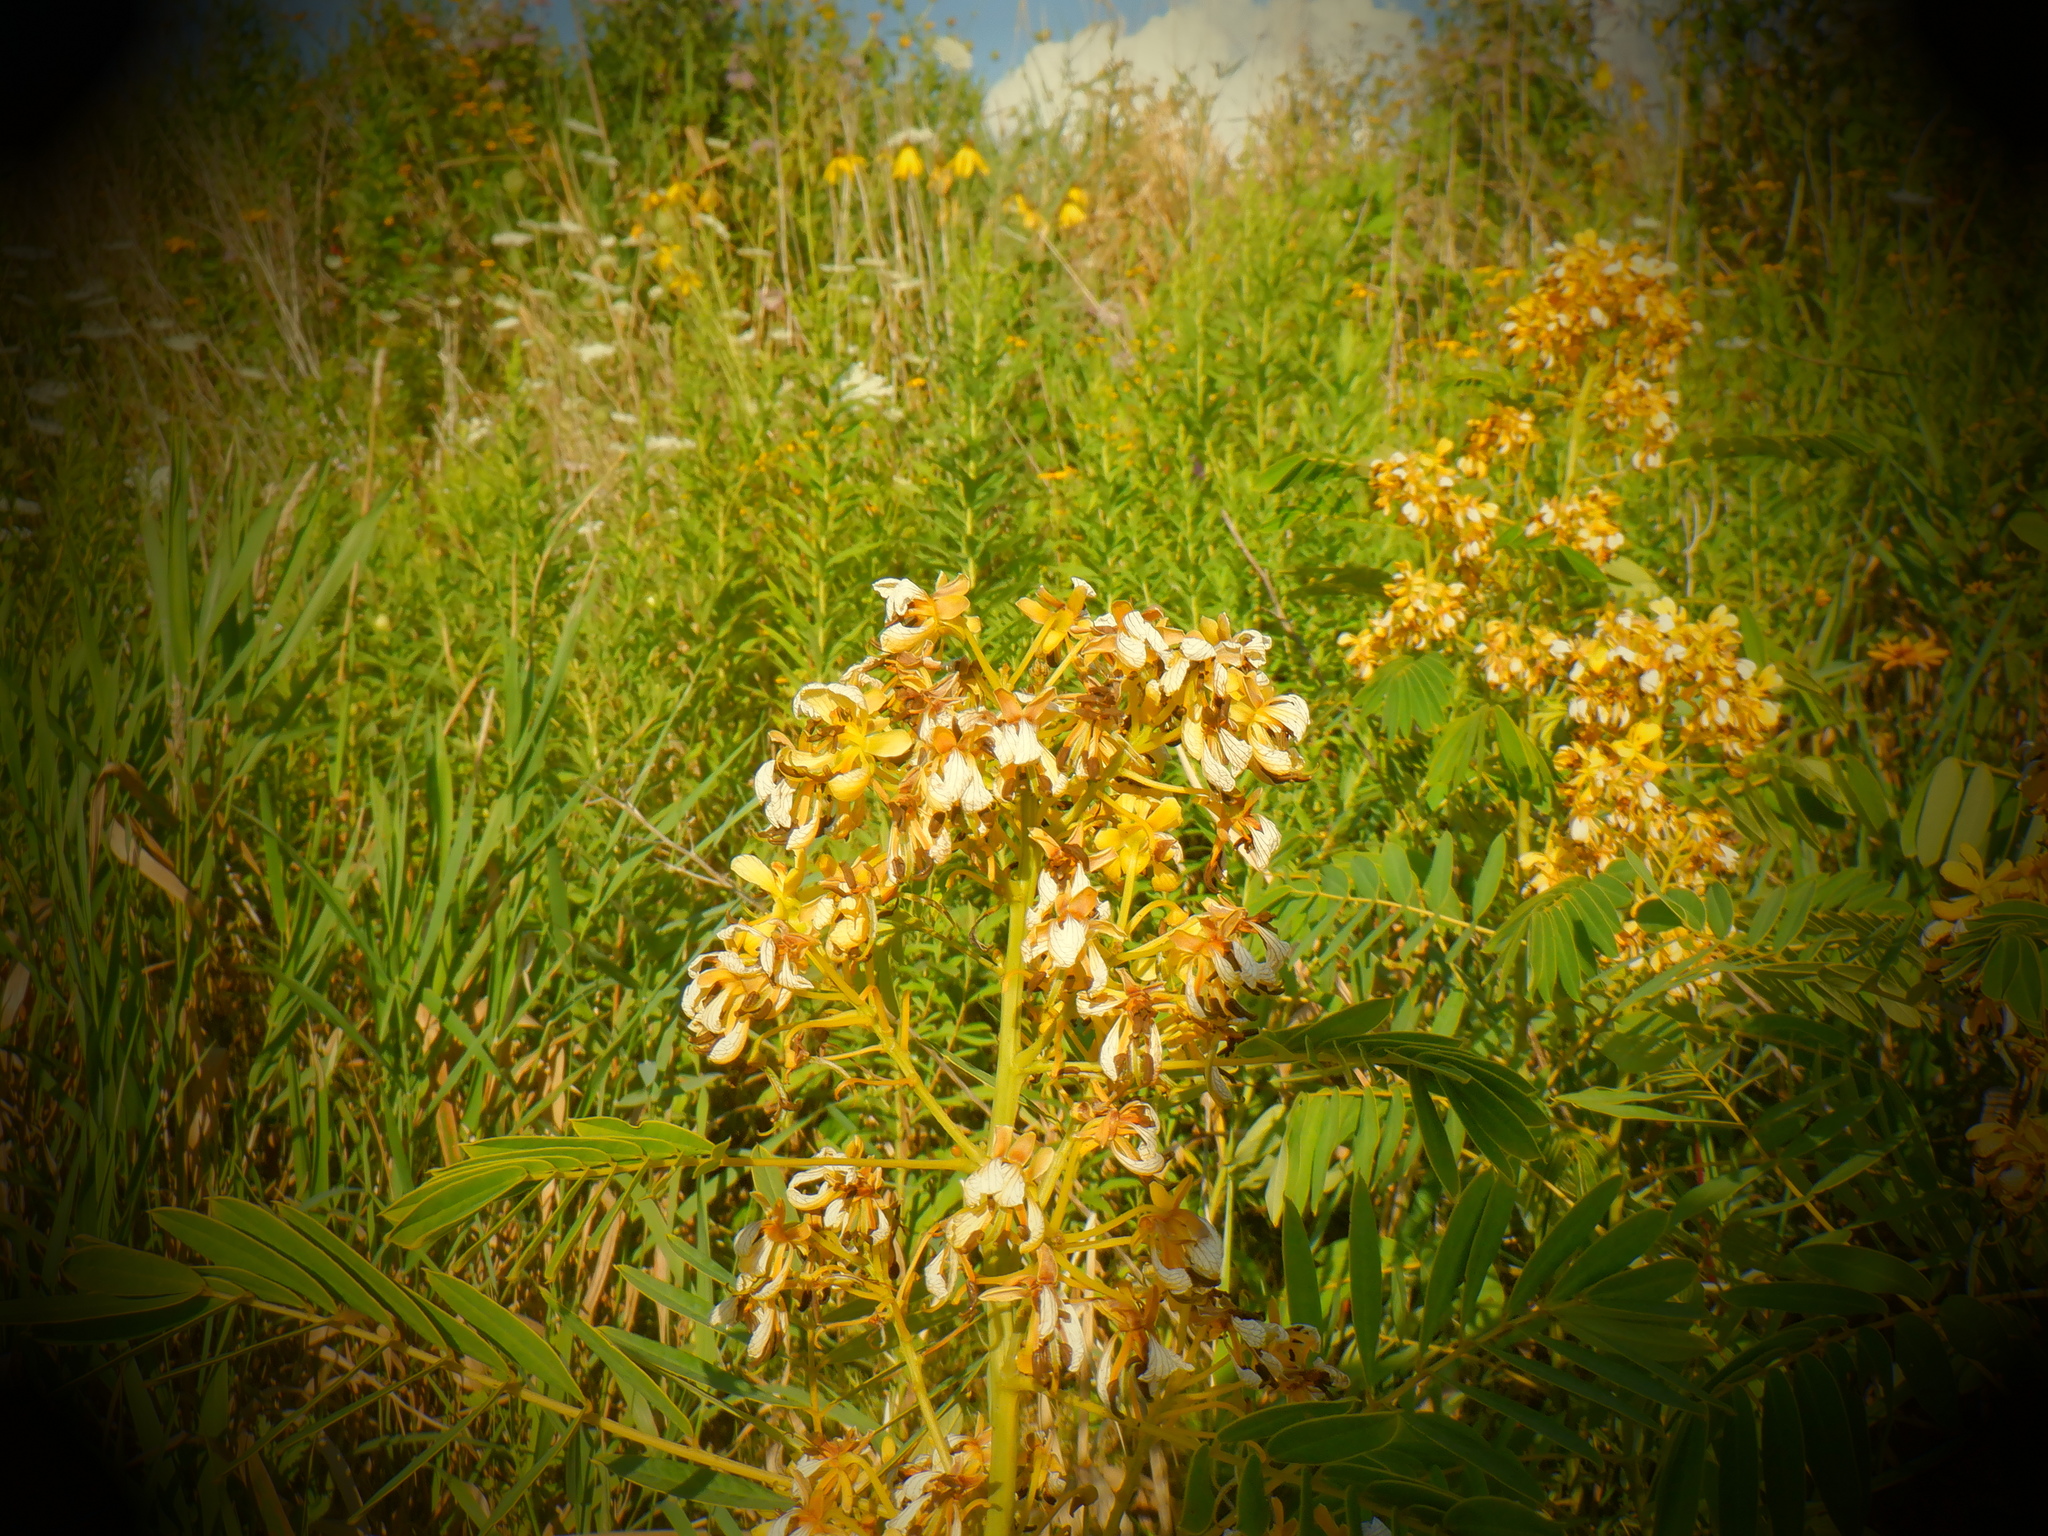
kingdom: Plantae
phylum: Tracheophyta
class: Magnoliopsida
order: Fabales
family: Fabaceae
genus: Senna
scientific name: Senna hebecarpa
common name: Wild senna
